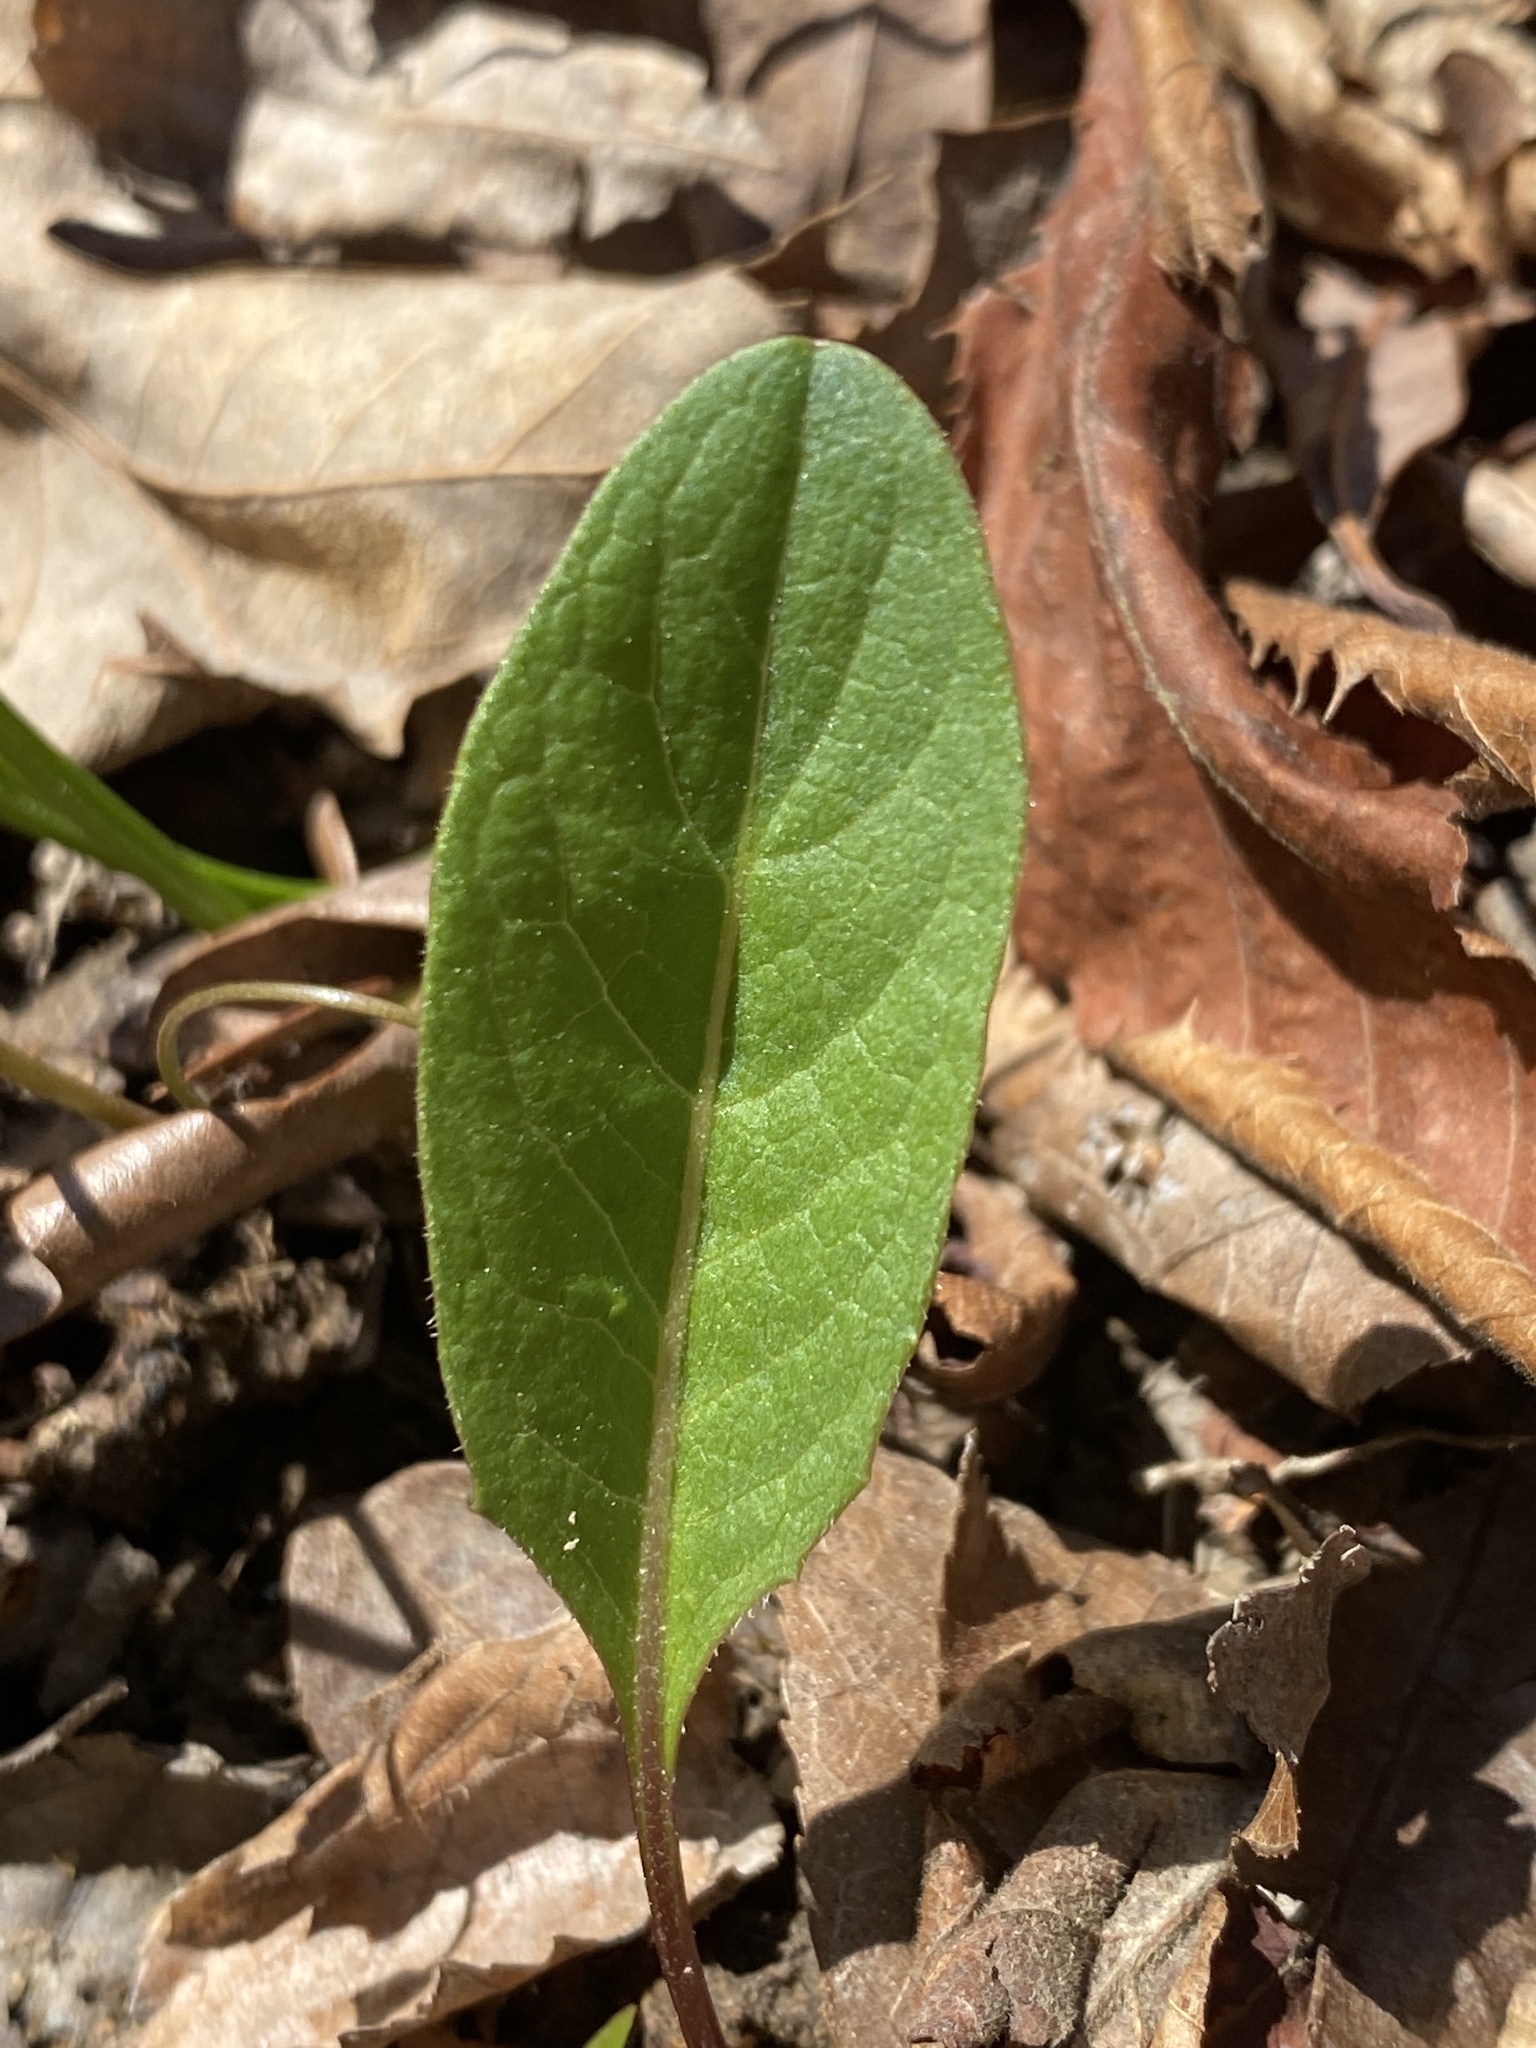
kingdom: Plantae
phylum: Tracheophyta
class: Magnoliopsida
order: Asterales
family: Asteraceae
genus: Nabalus
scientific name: Nabalus asper
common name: Rough rattlesnakeroot
